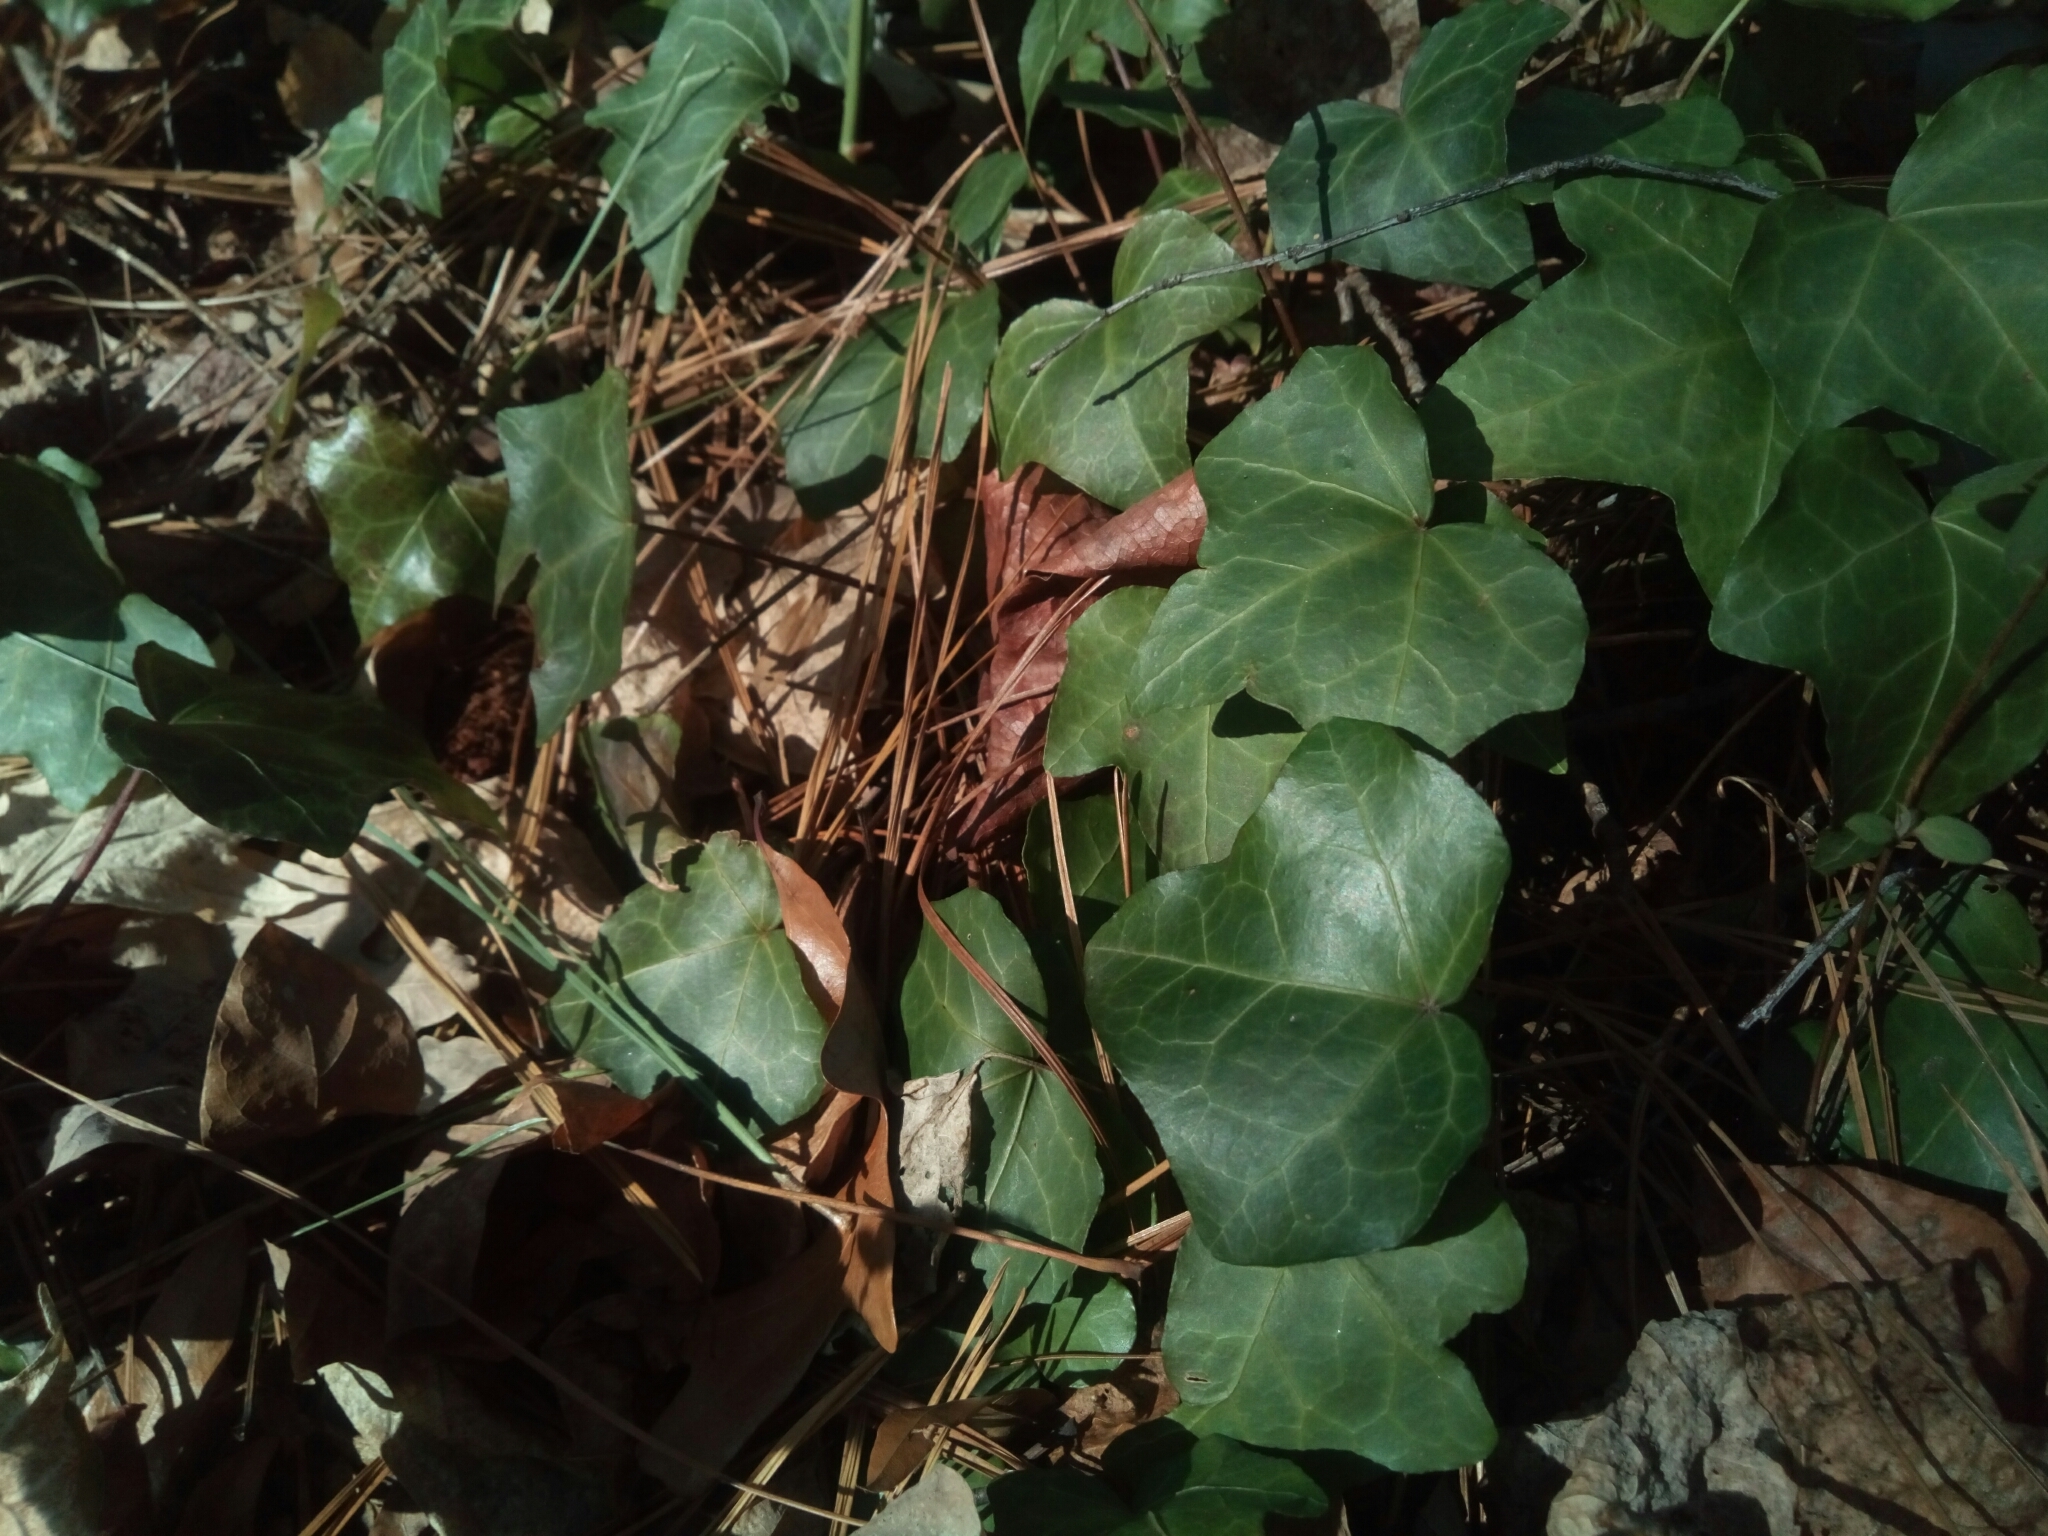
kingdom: Plantae
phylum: Tracheophyta
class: Magnoliopsida
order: Apiales
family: Araliaceae
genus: Hedera
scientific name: Hedera helix
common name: Ivy
